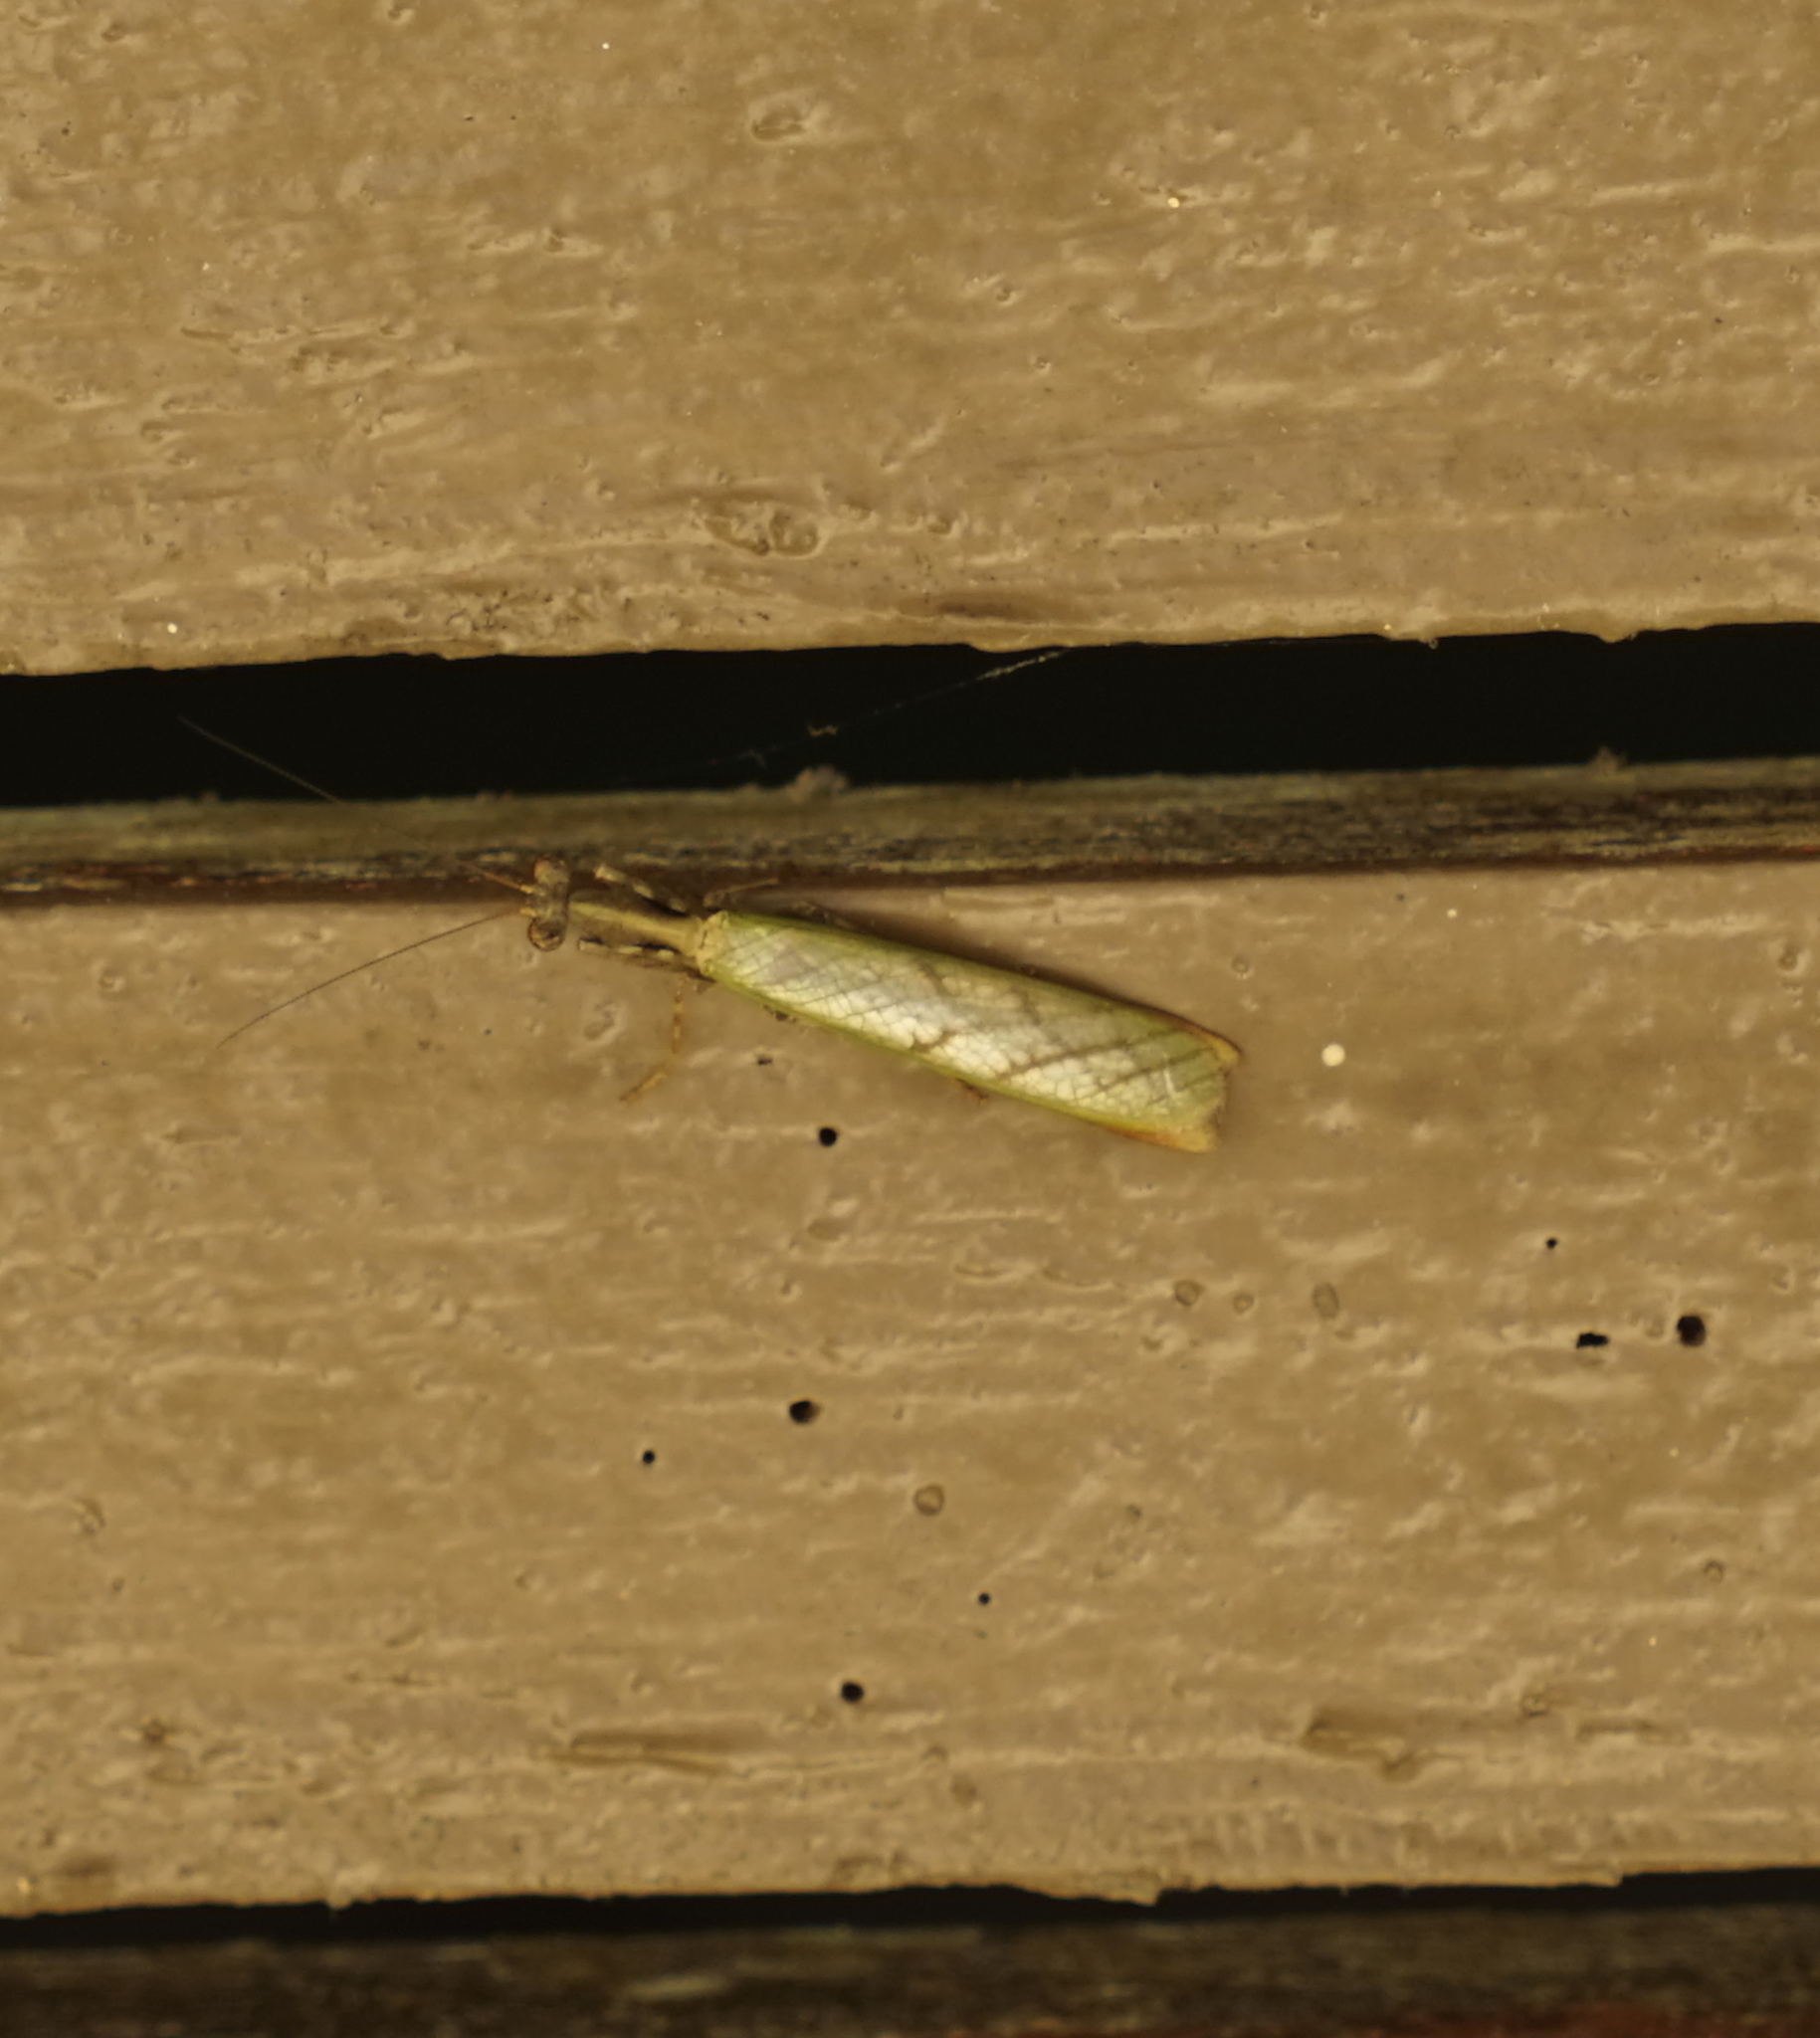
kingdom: Animalia
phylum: Arthropoda
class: Insecta
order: Mantodea
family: Hymenopodidae
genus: Acromantis
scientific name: Acromantis
